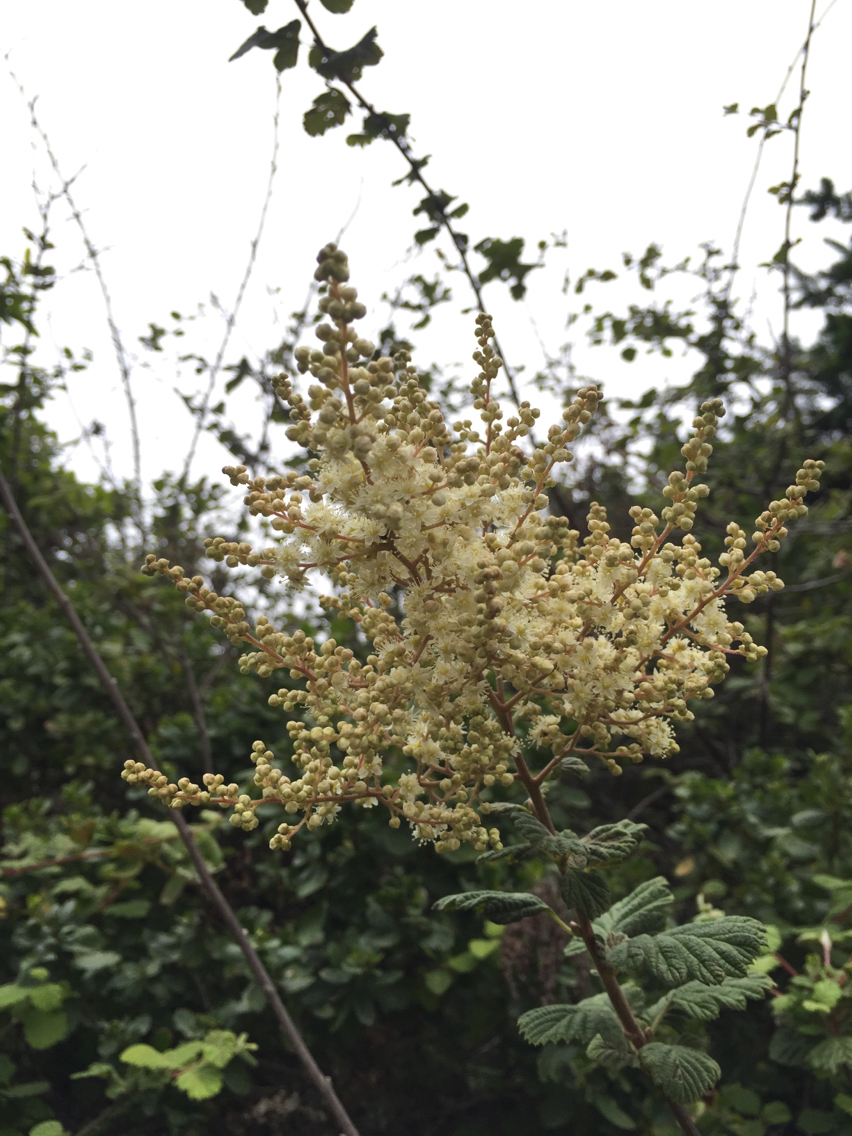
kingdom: Plantae
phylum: Tracheophyta
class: Magnoliopsida
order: Rosales
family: Rosaceae
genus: Holodiscus
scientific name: Holodiscus discolor
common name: Oceanspray
